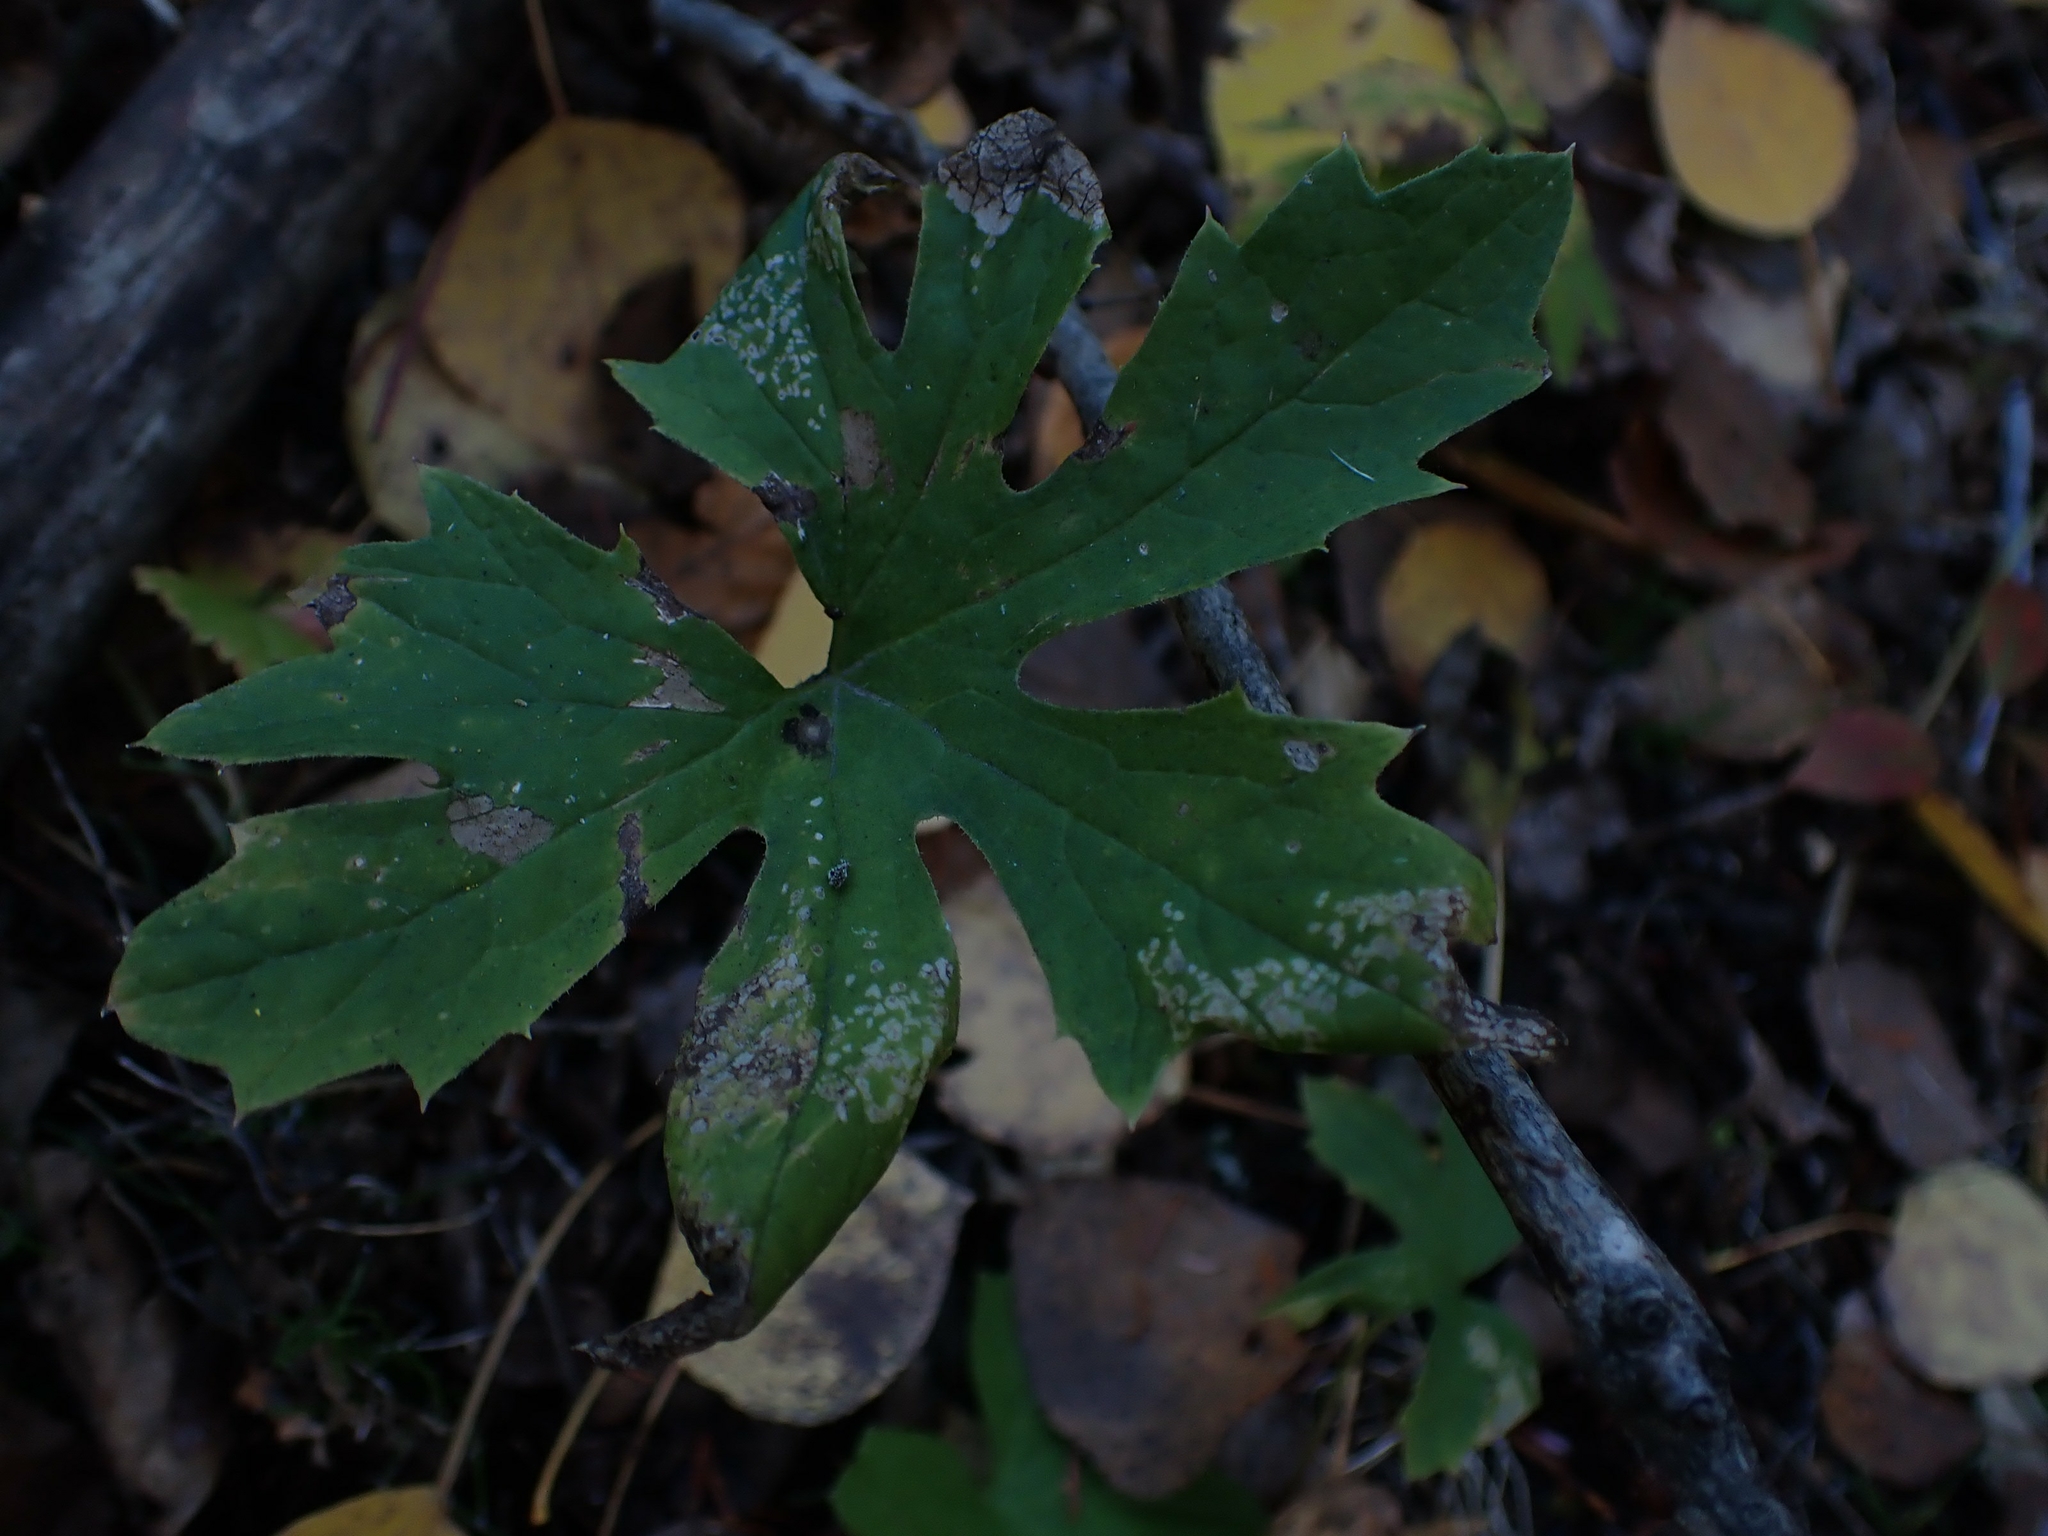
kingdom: Plantae
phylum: Tracheophyta
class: Magnoliopsida
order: Asterales
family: Asteraceae
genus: Petasites
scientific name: Petasites frigidus
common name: Arctic butterbur
